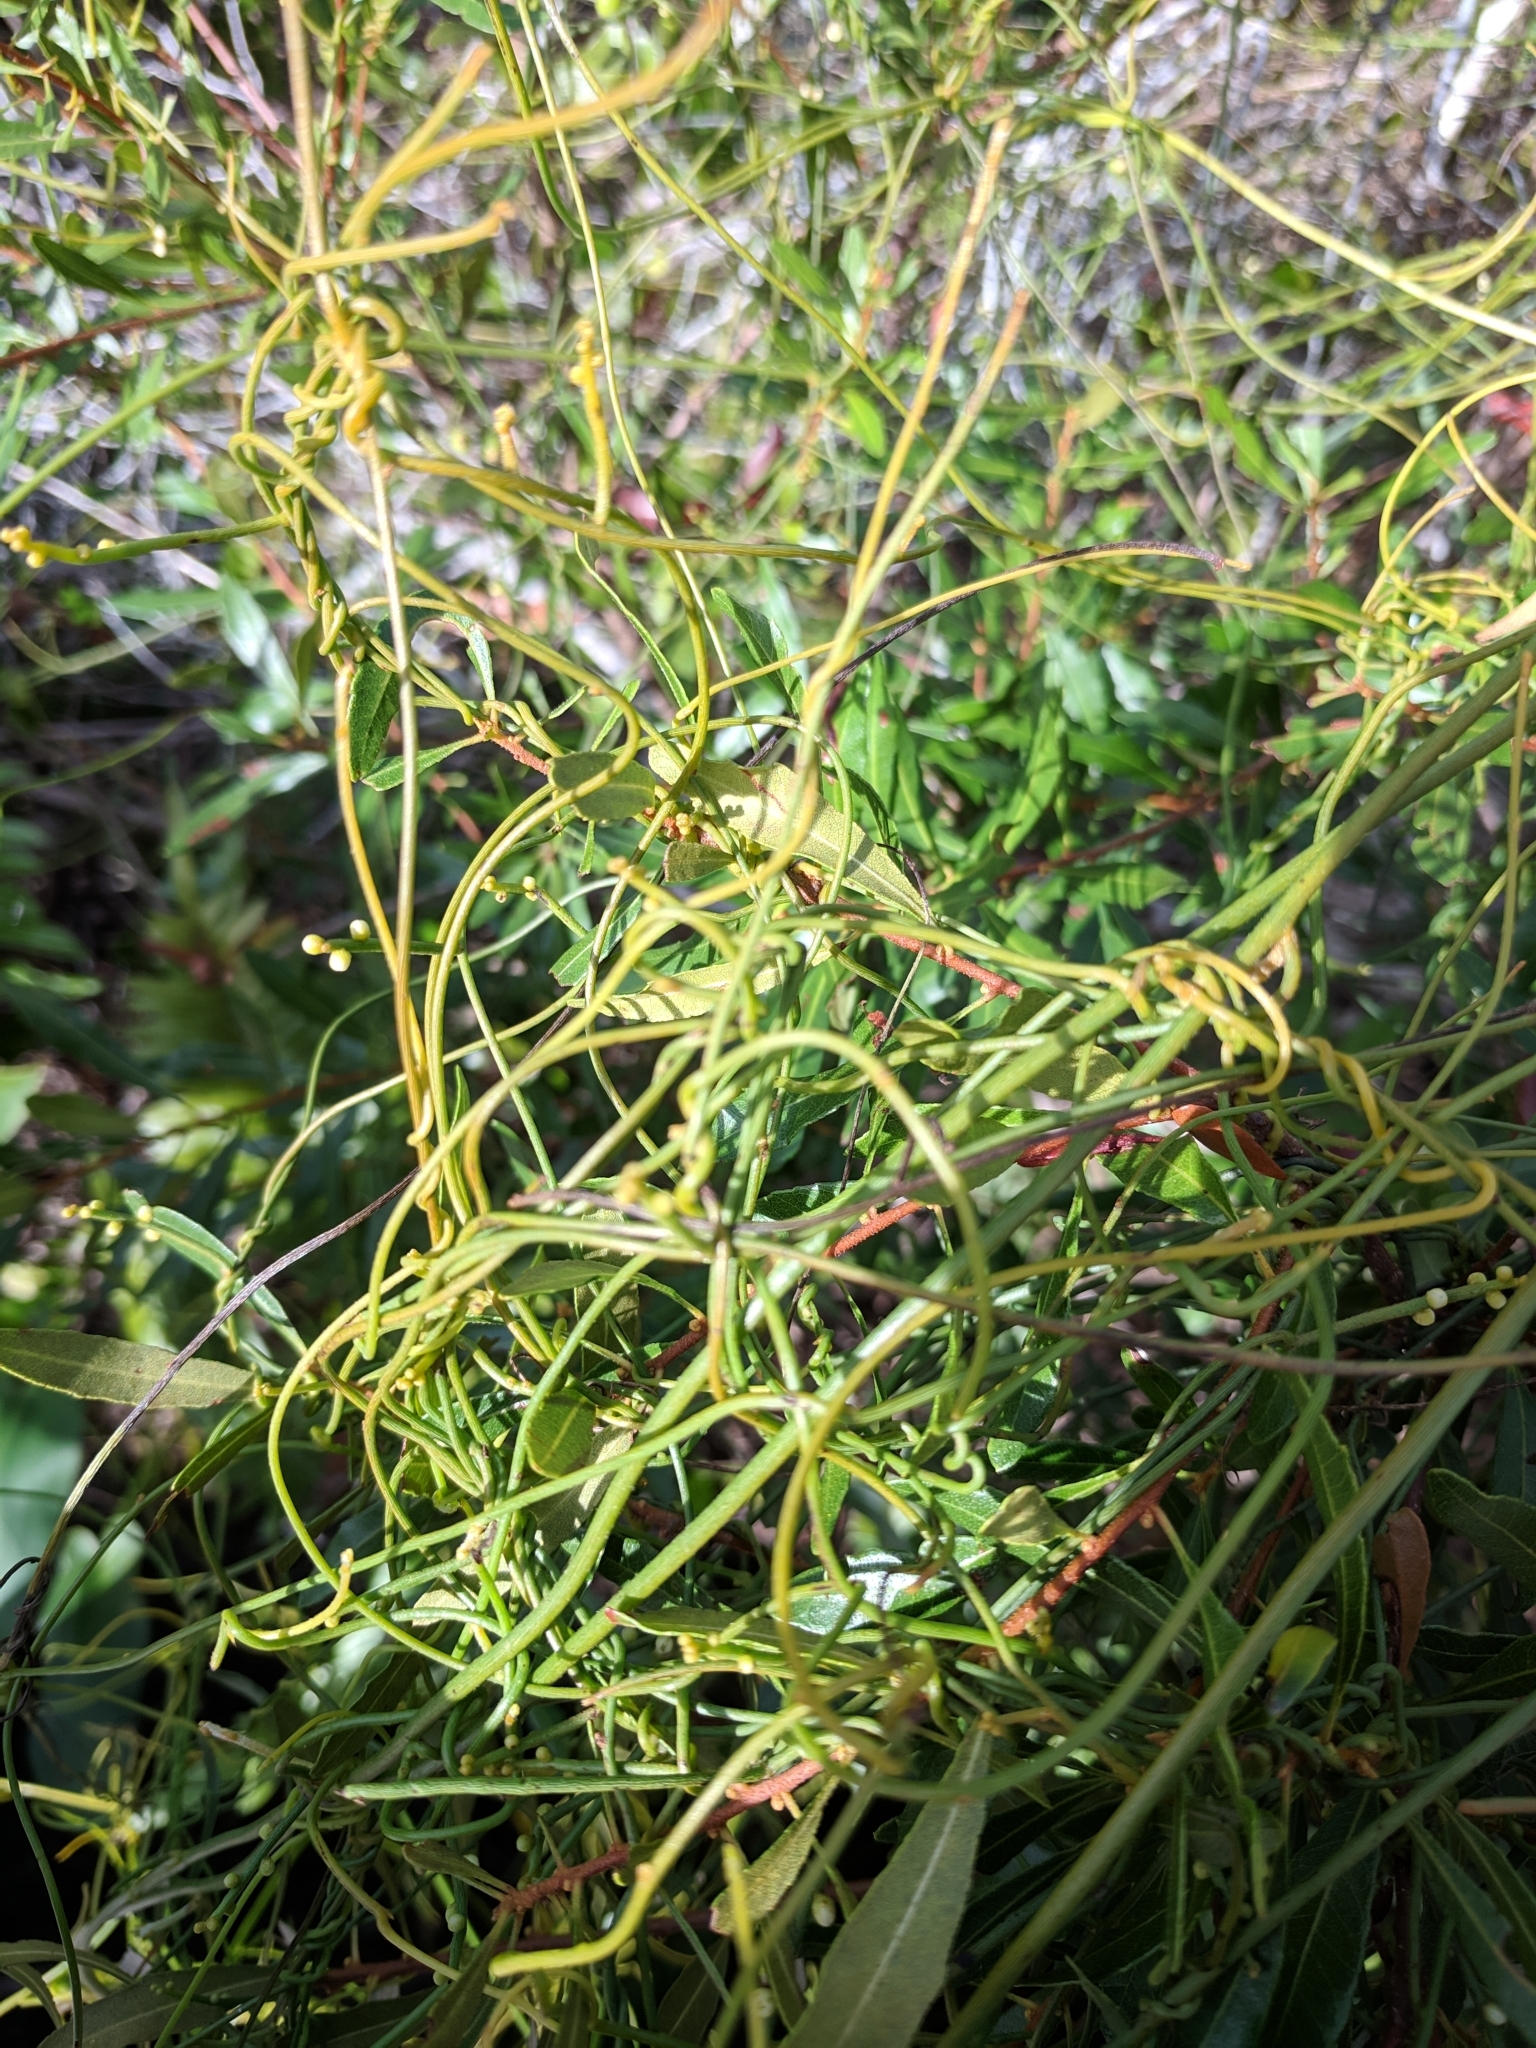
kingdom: Plantae
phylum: Tracheophyta
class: Magnoliopsida
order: Laurales
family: Lauraceae
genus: Cassytha
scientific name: Cassytha filiformis
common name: Dodder-laurel
